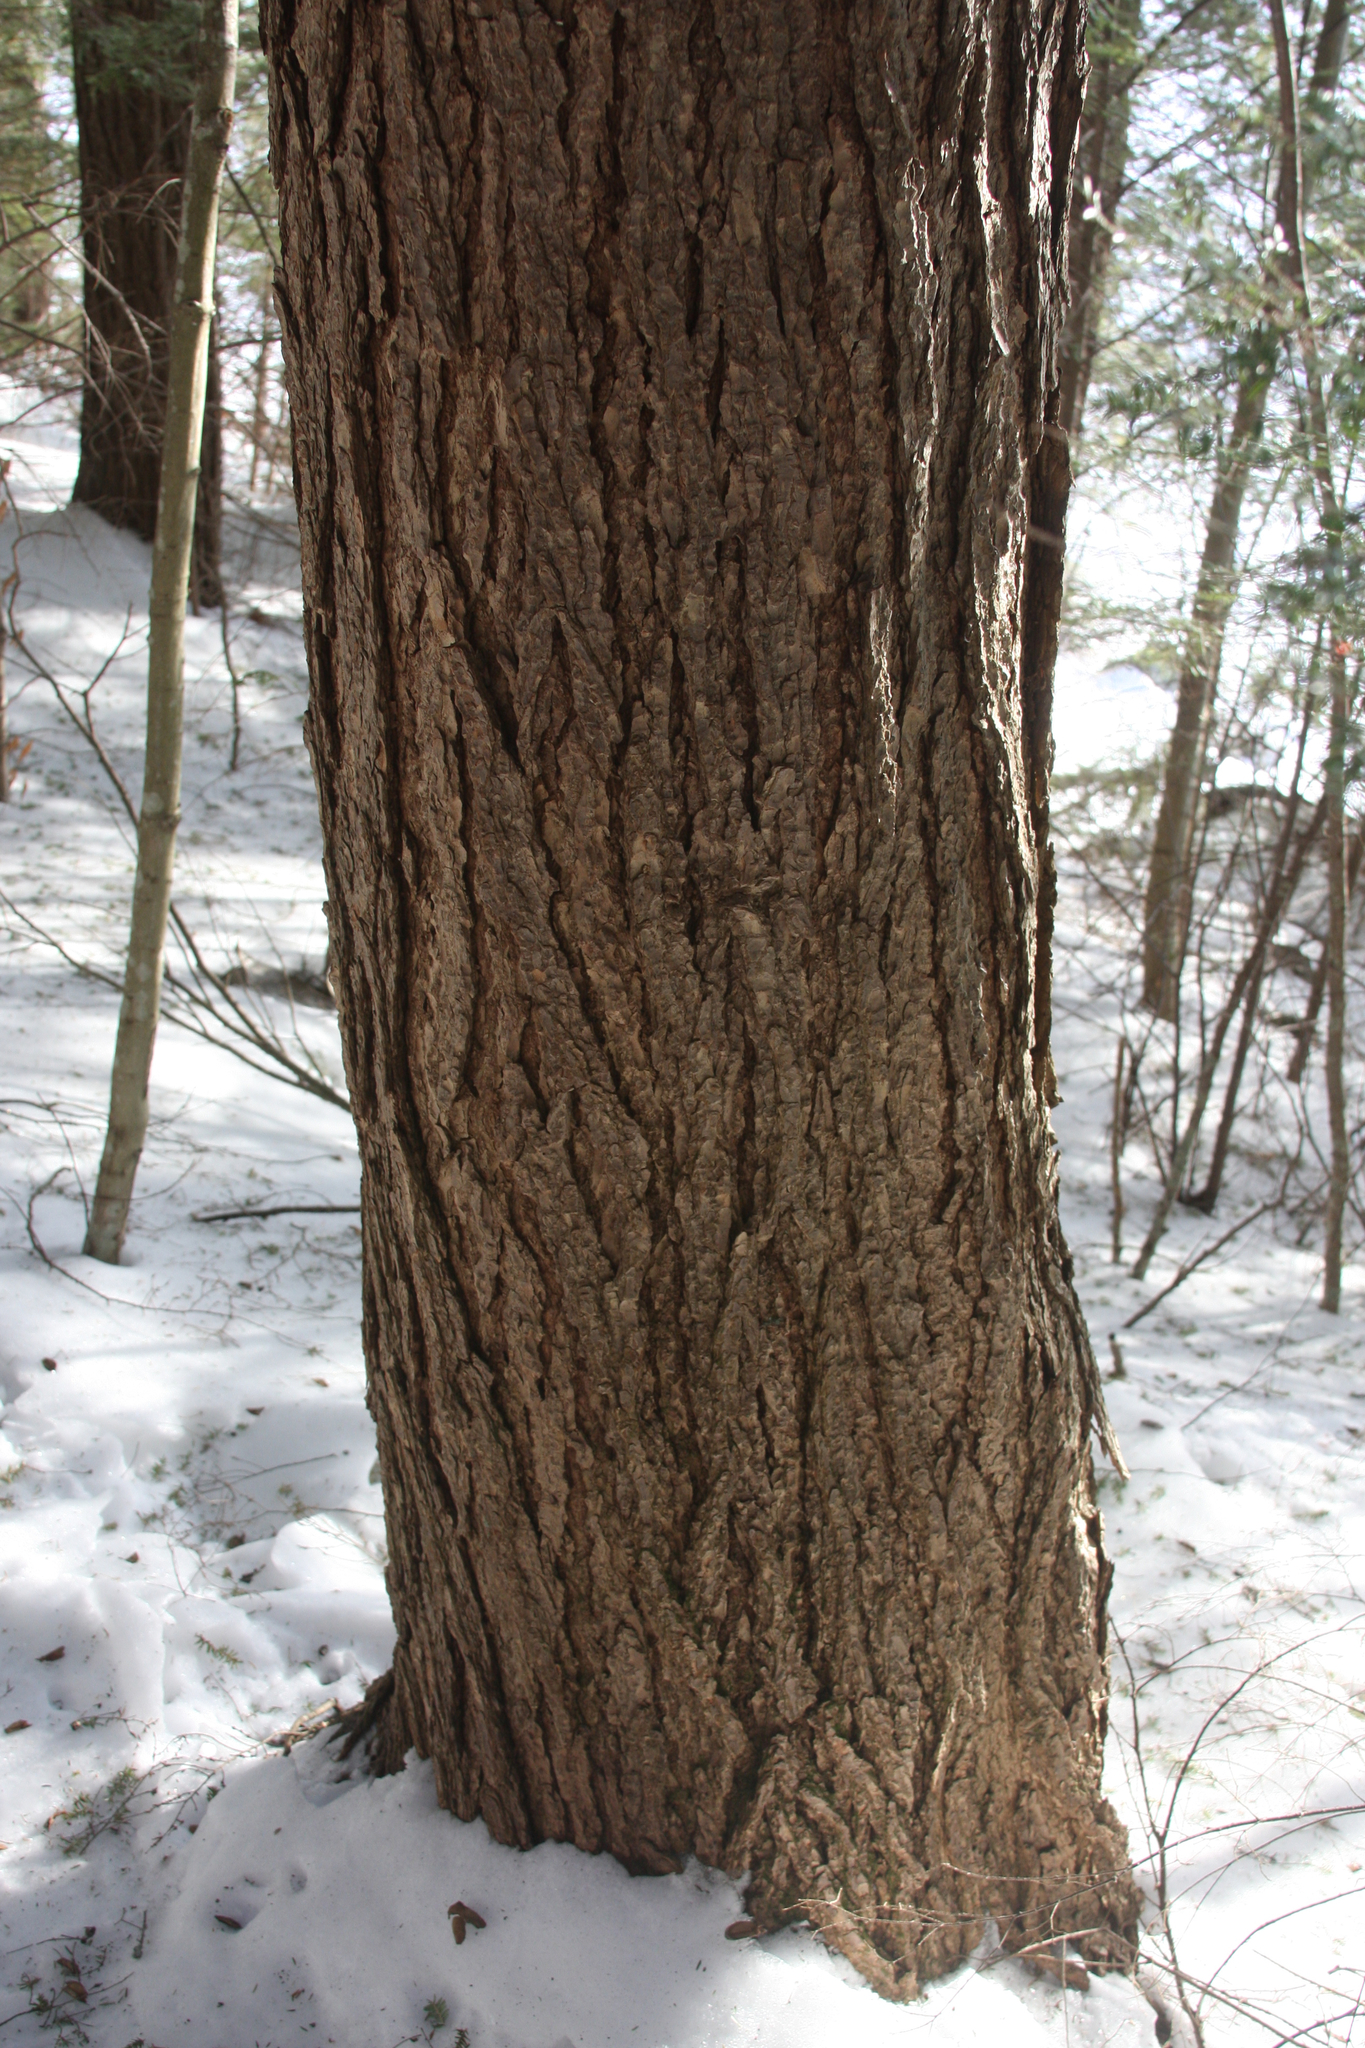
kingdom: Plantae
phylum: Tracheophyta
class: Pinopsida
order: Pinales
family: Pinaceae
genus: Tsuga
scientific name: Tsuga canadensis
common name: Eastern hemlock
